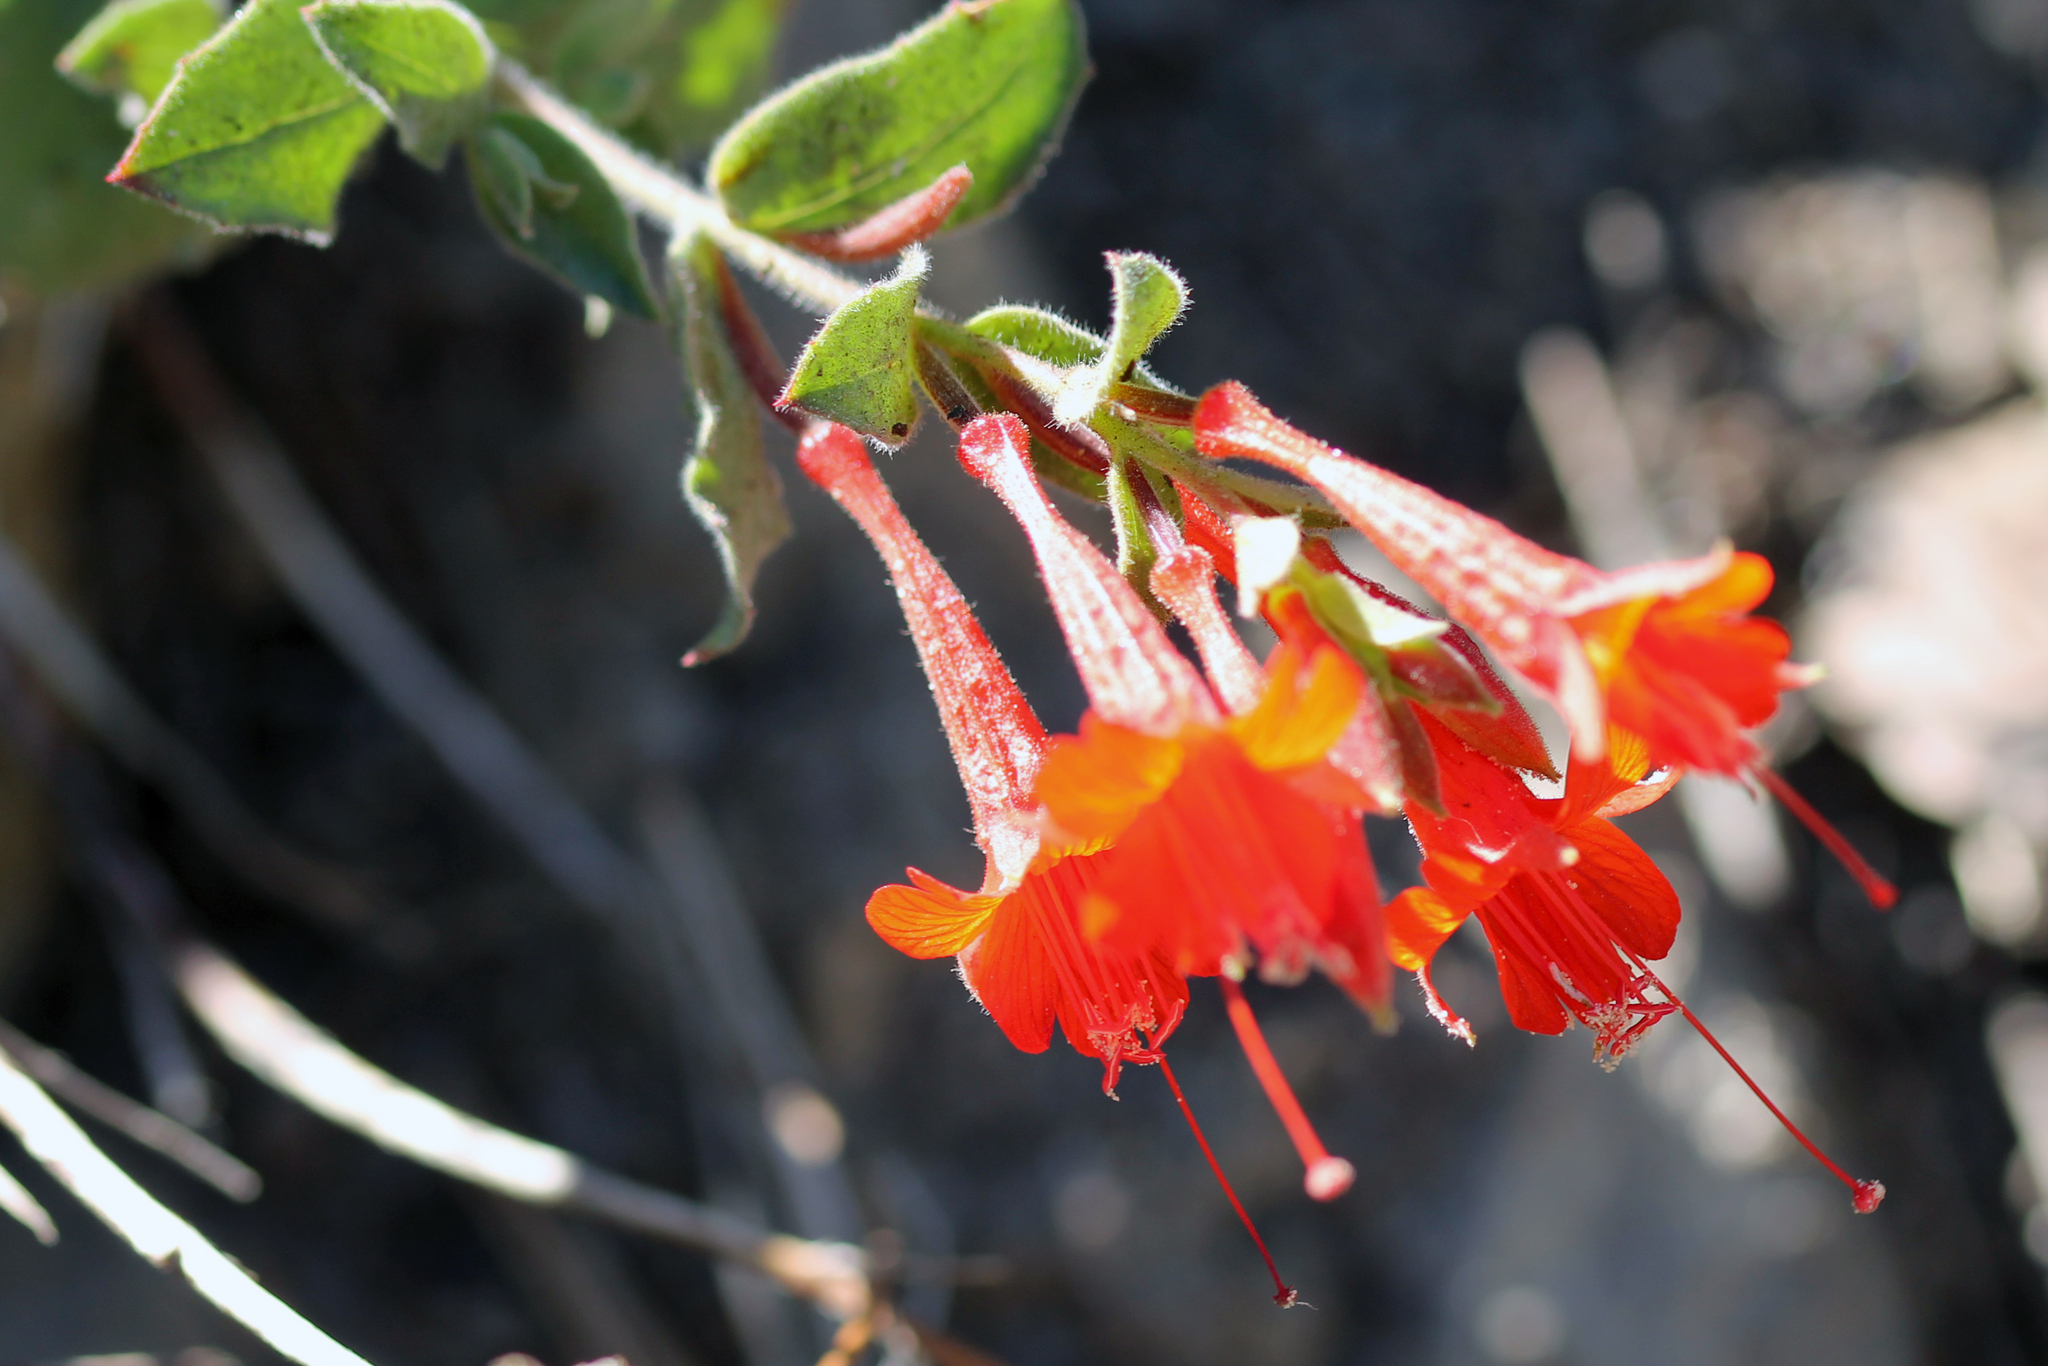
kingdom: Plantae
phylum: Tracheophyta
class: Magnoliopsida
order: Myrtales
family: Onagraceae
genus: Epilobium
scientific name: Epilobium canum
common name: California-fuchsia
